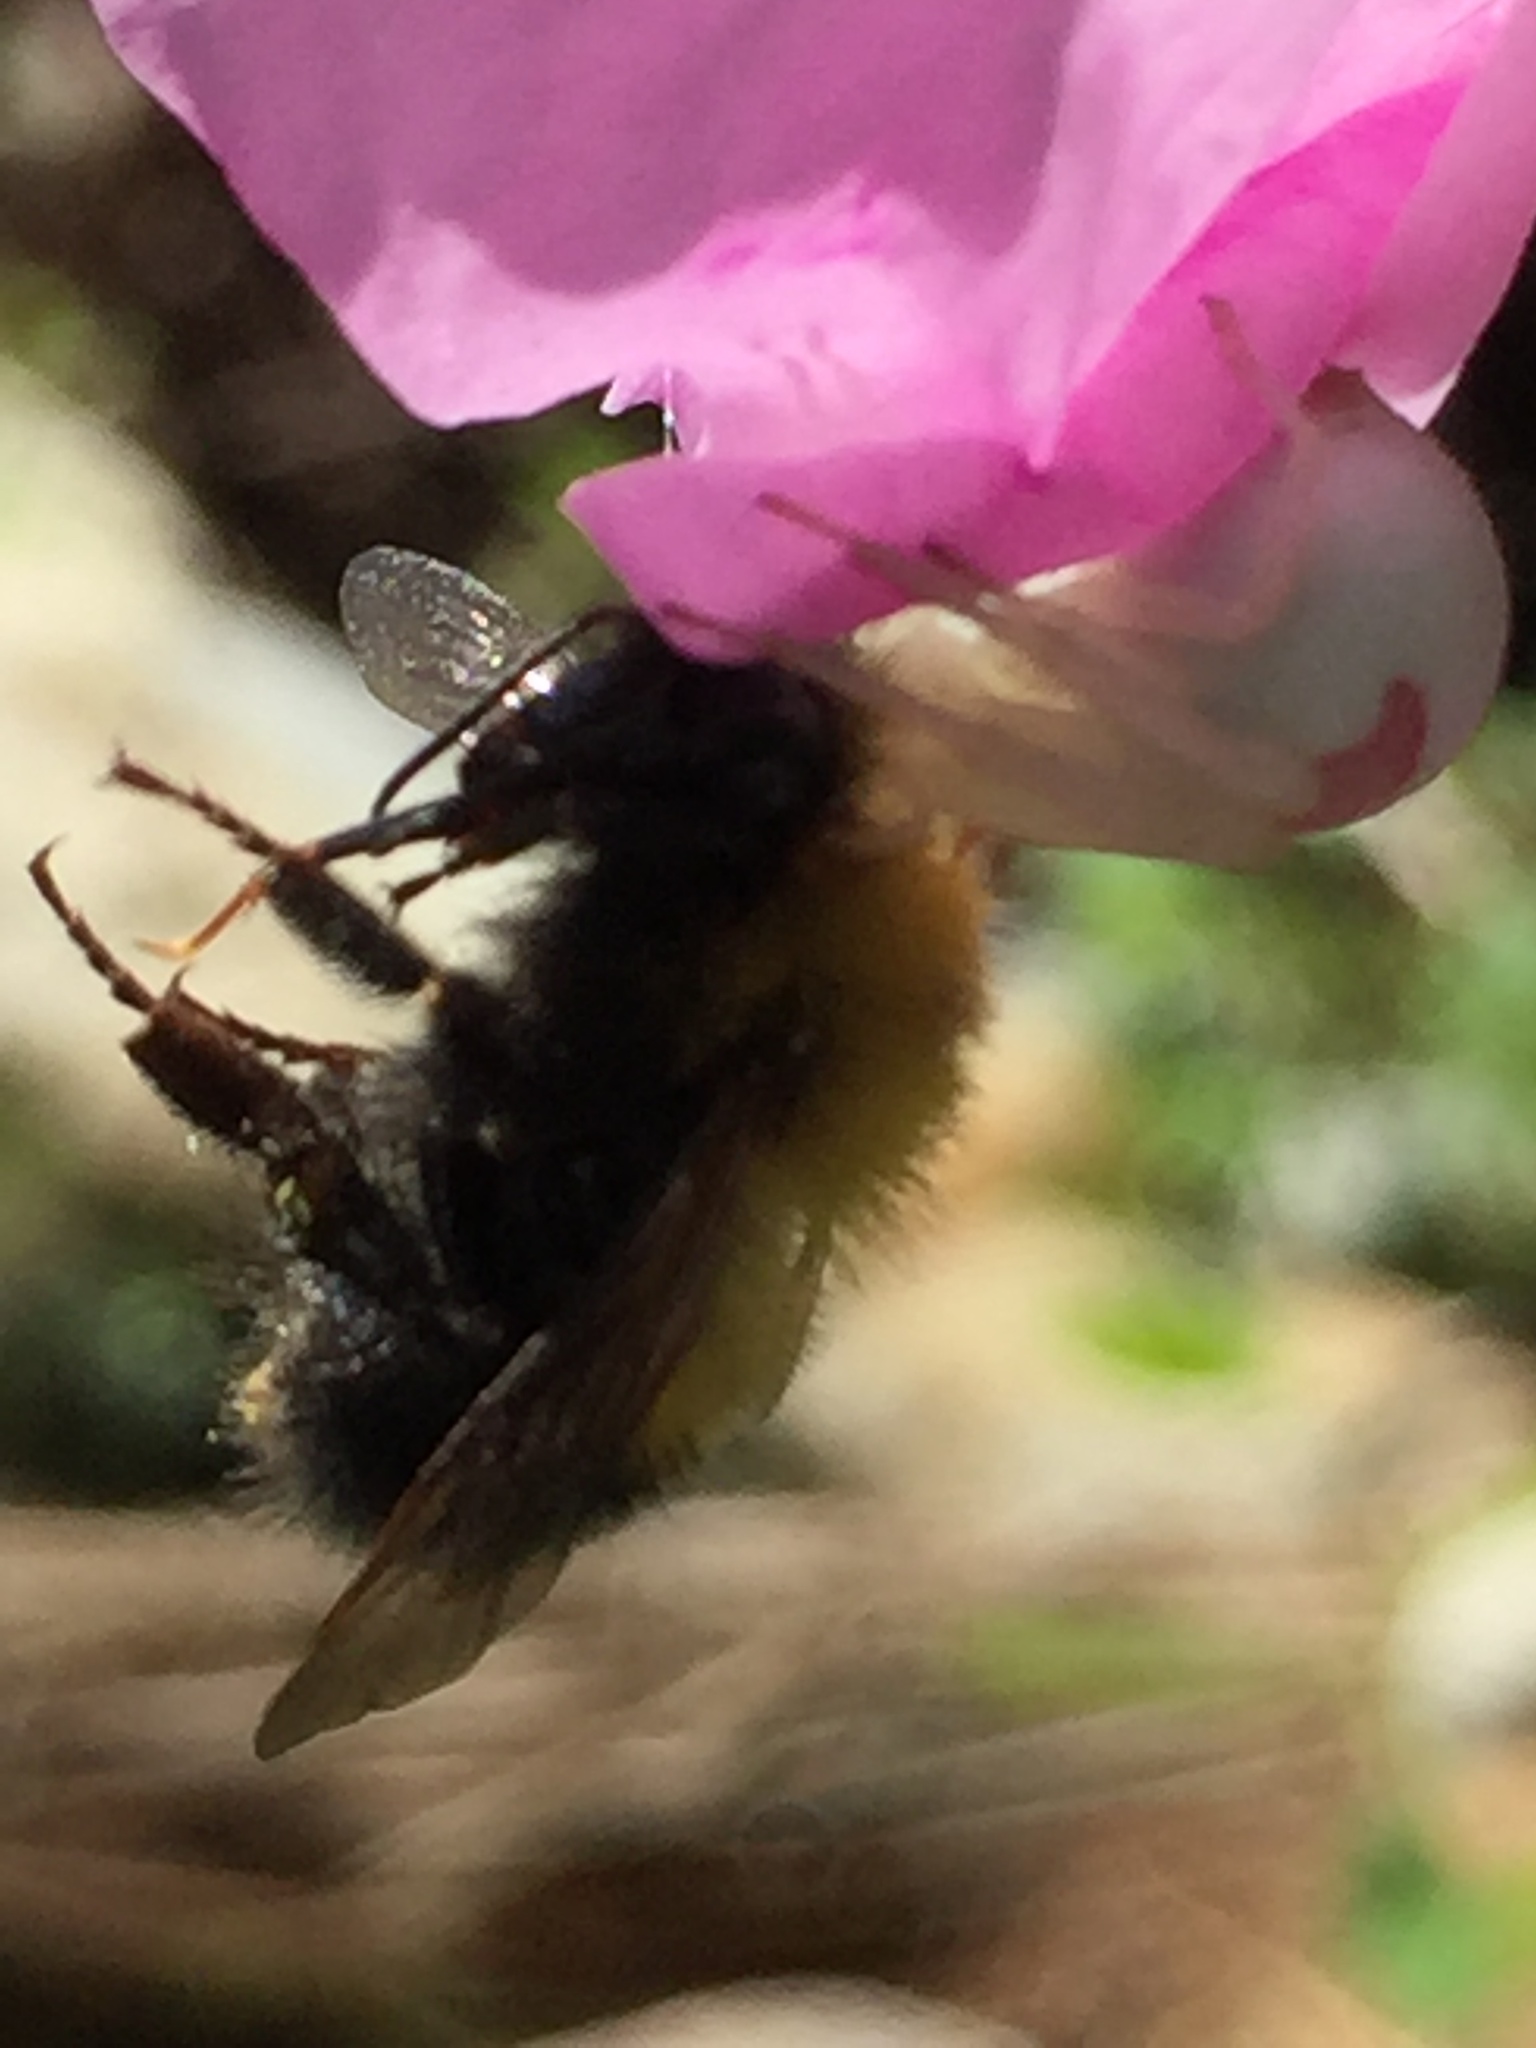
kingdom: Animalia
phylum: Arthropoda
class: Insecta
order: Hymenoptera
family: Apidae
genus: Bombus
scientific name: Bombus perplexus
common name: Confusing bumble bee
